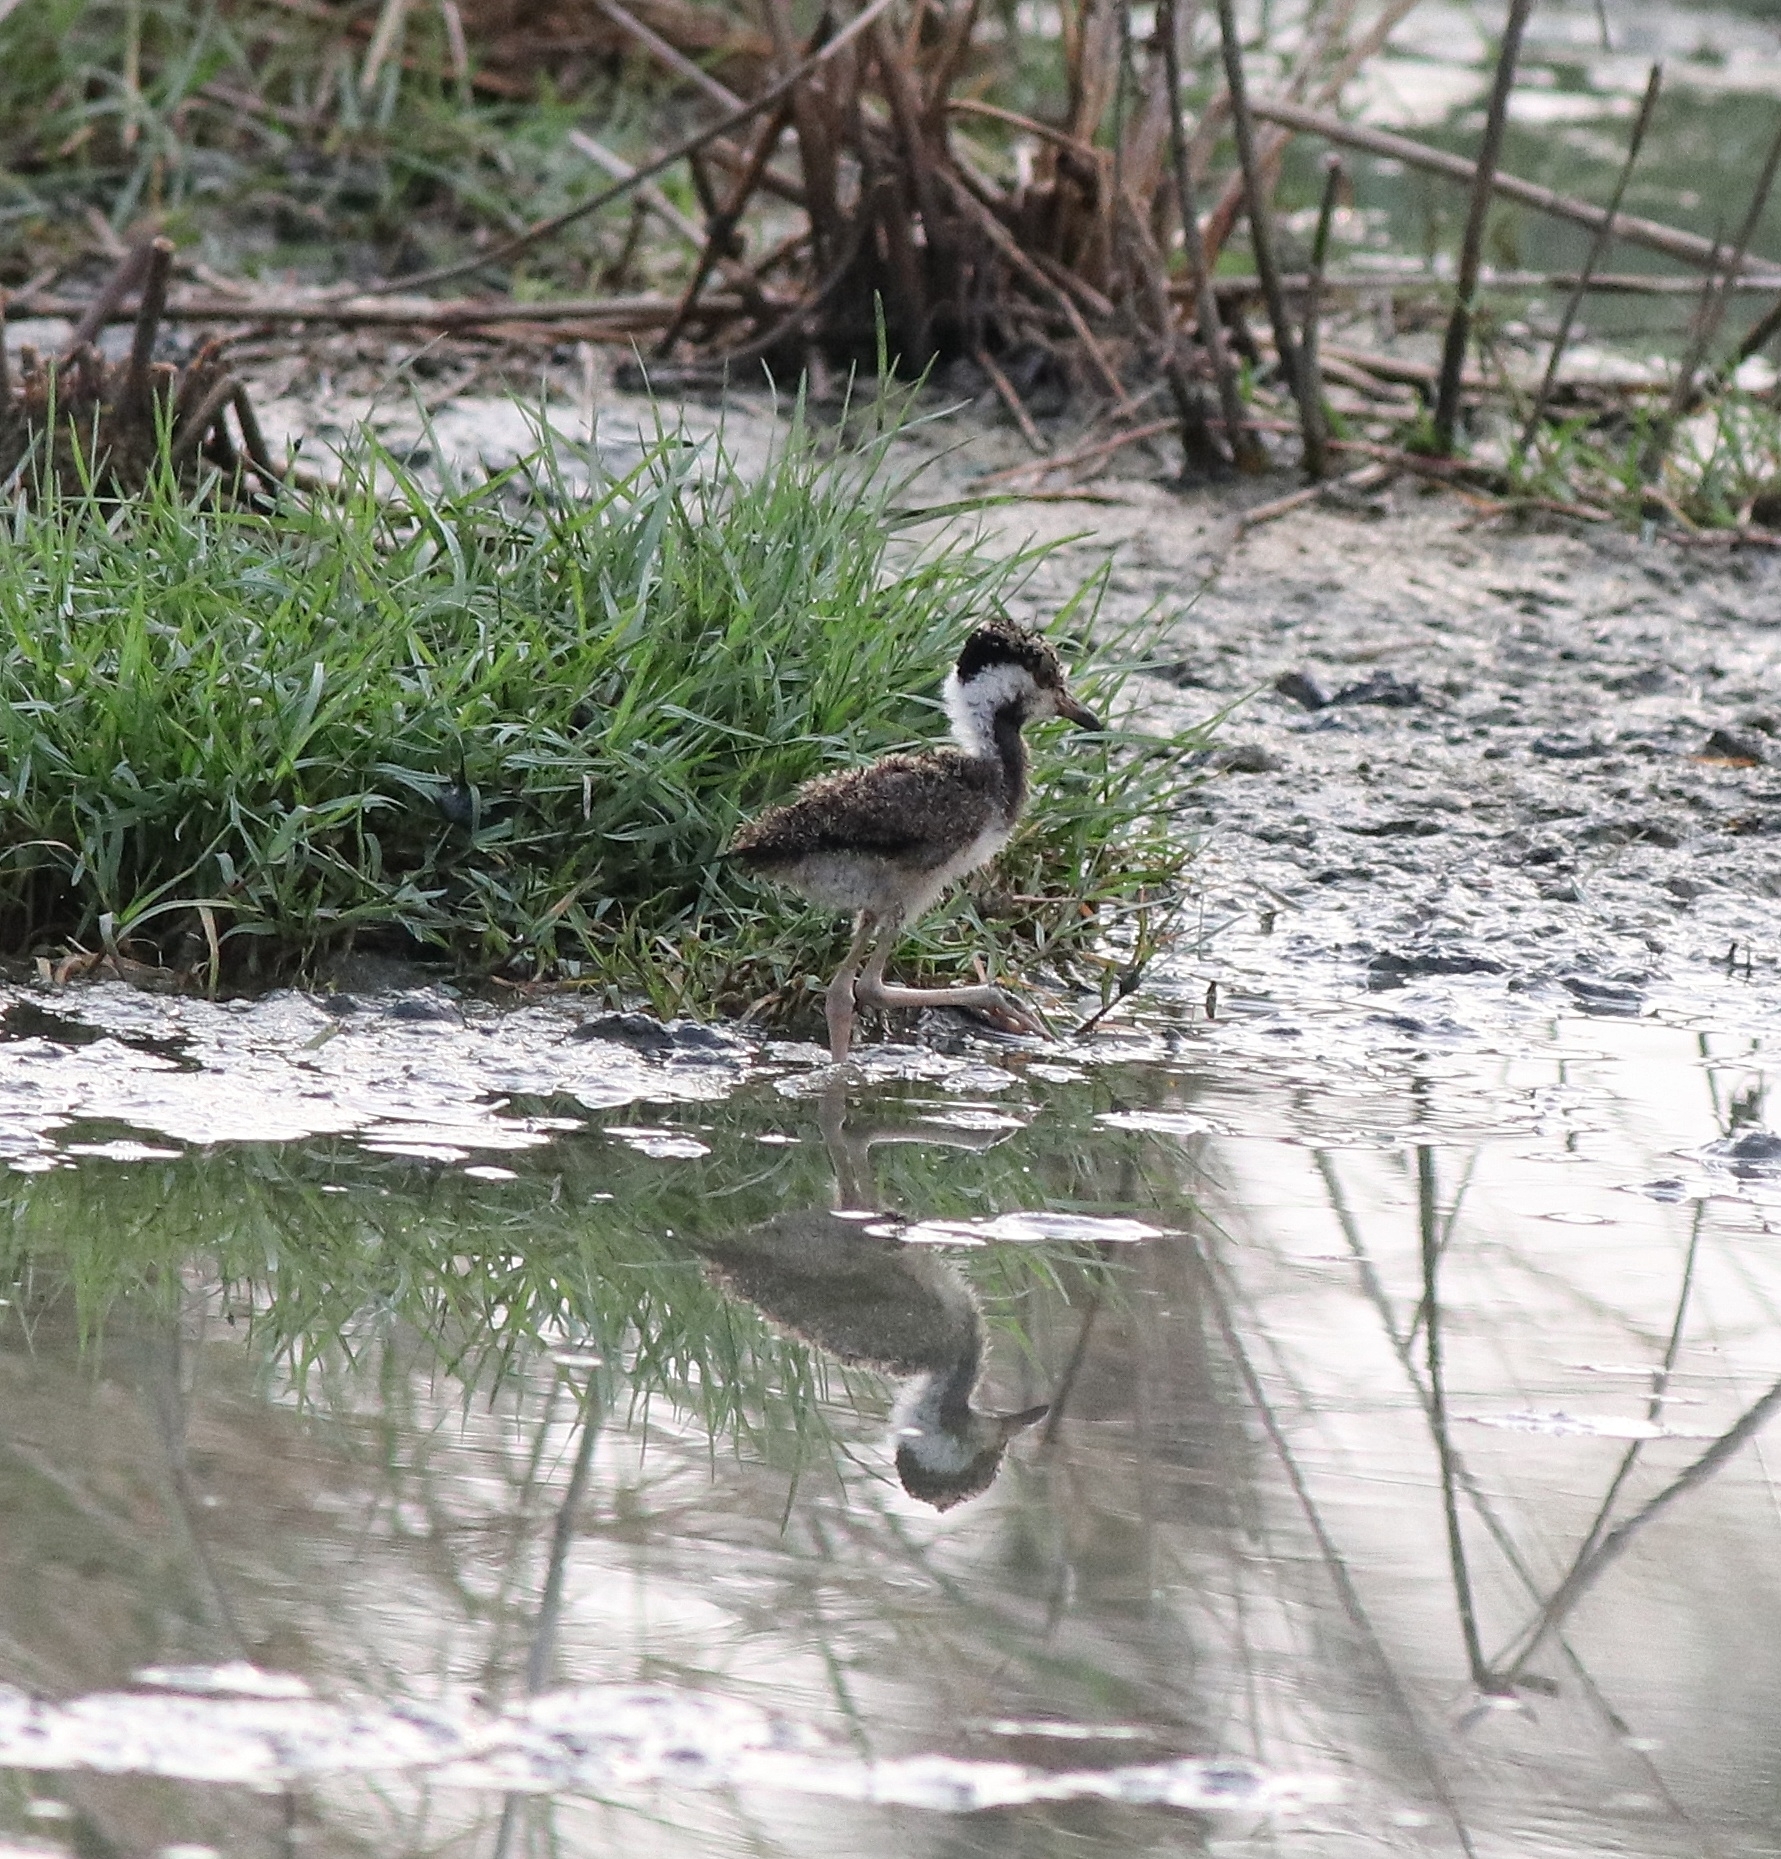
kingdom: Animalia
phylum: Chordata
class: Aves
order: Charadriiformes
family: Charadriidae
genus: Vanellus
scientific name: Vanellus indicus
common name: Red-wattled lapwing
